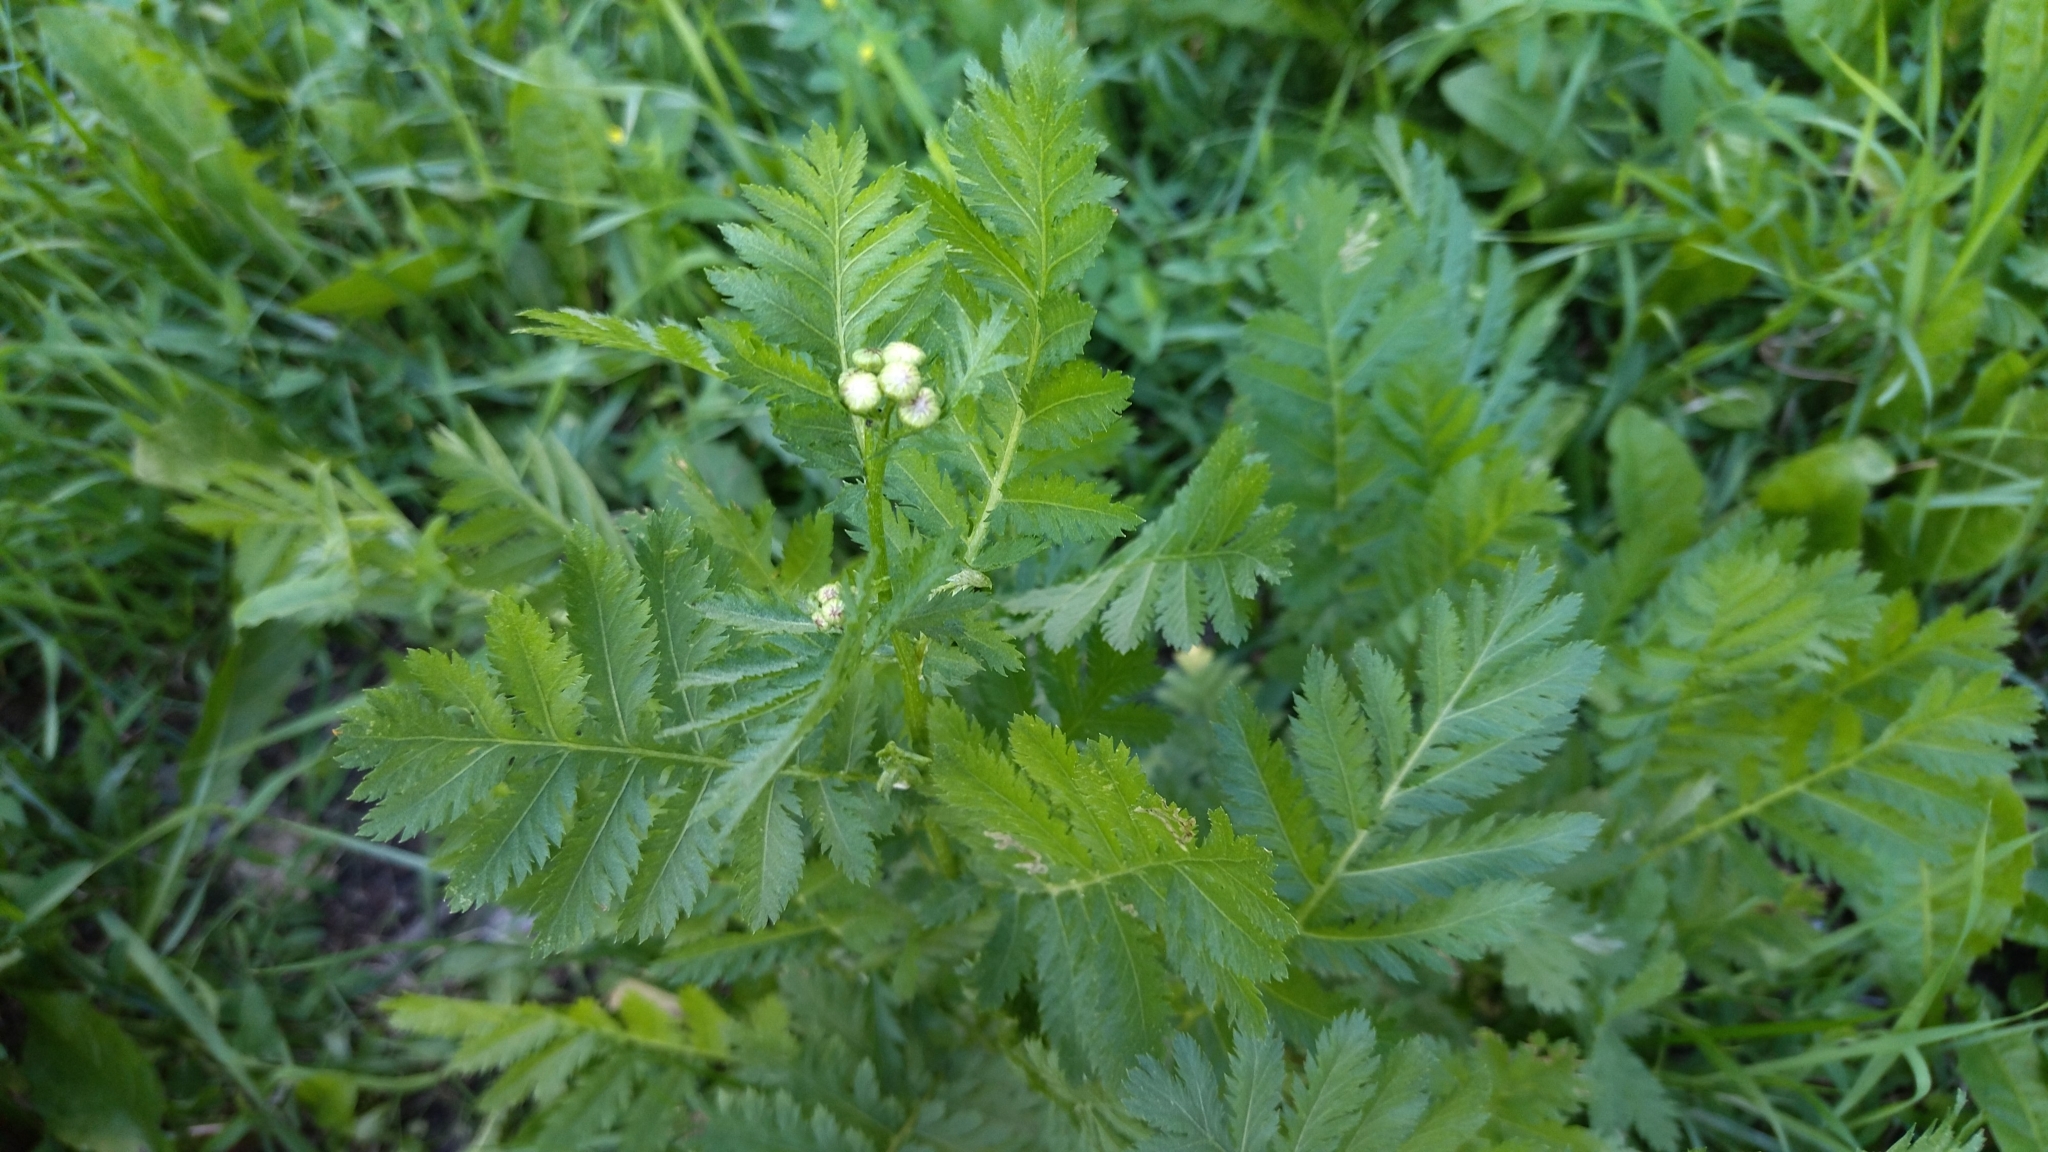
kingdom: Plantae
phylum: Tracheophyta
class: Magnoliopsida
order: Asterales
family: Asteraceae
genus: Tanacetum
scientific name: Tanacetum vulgare
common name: Common tansy
